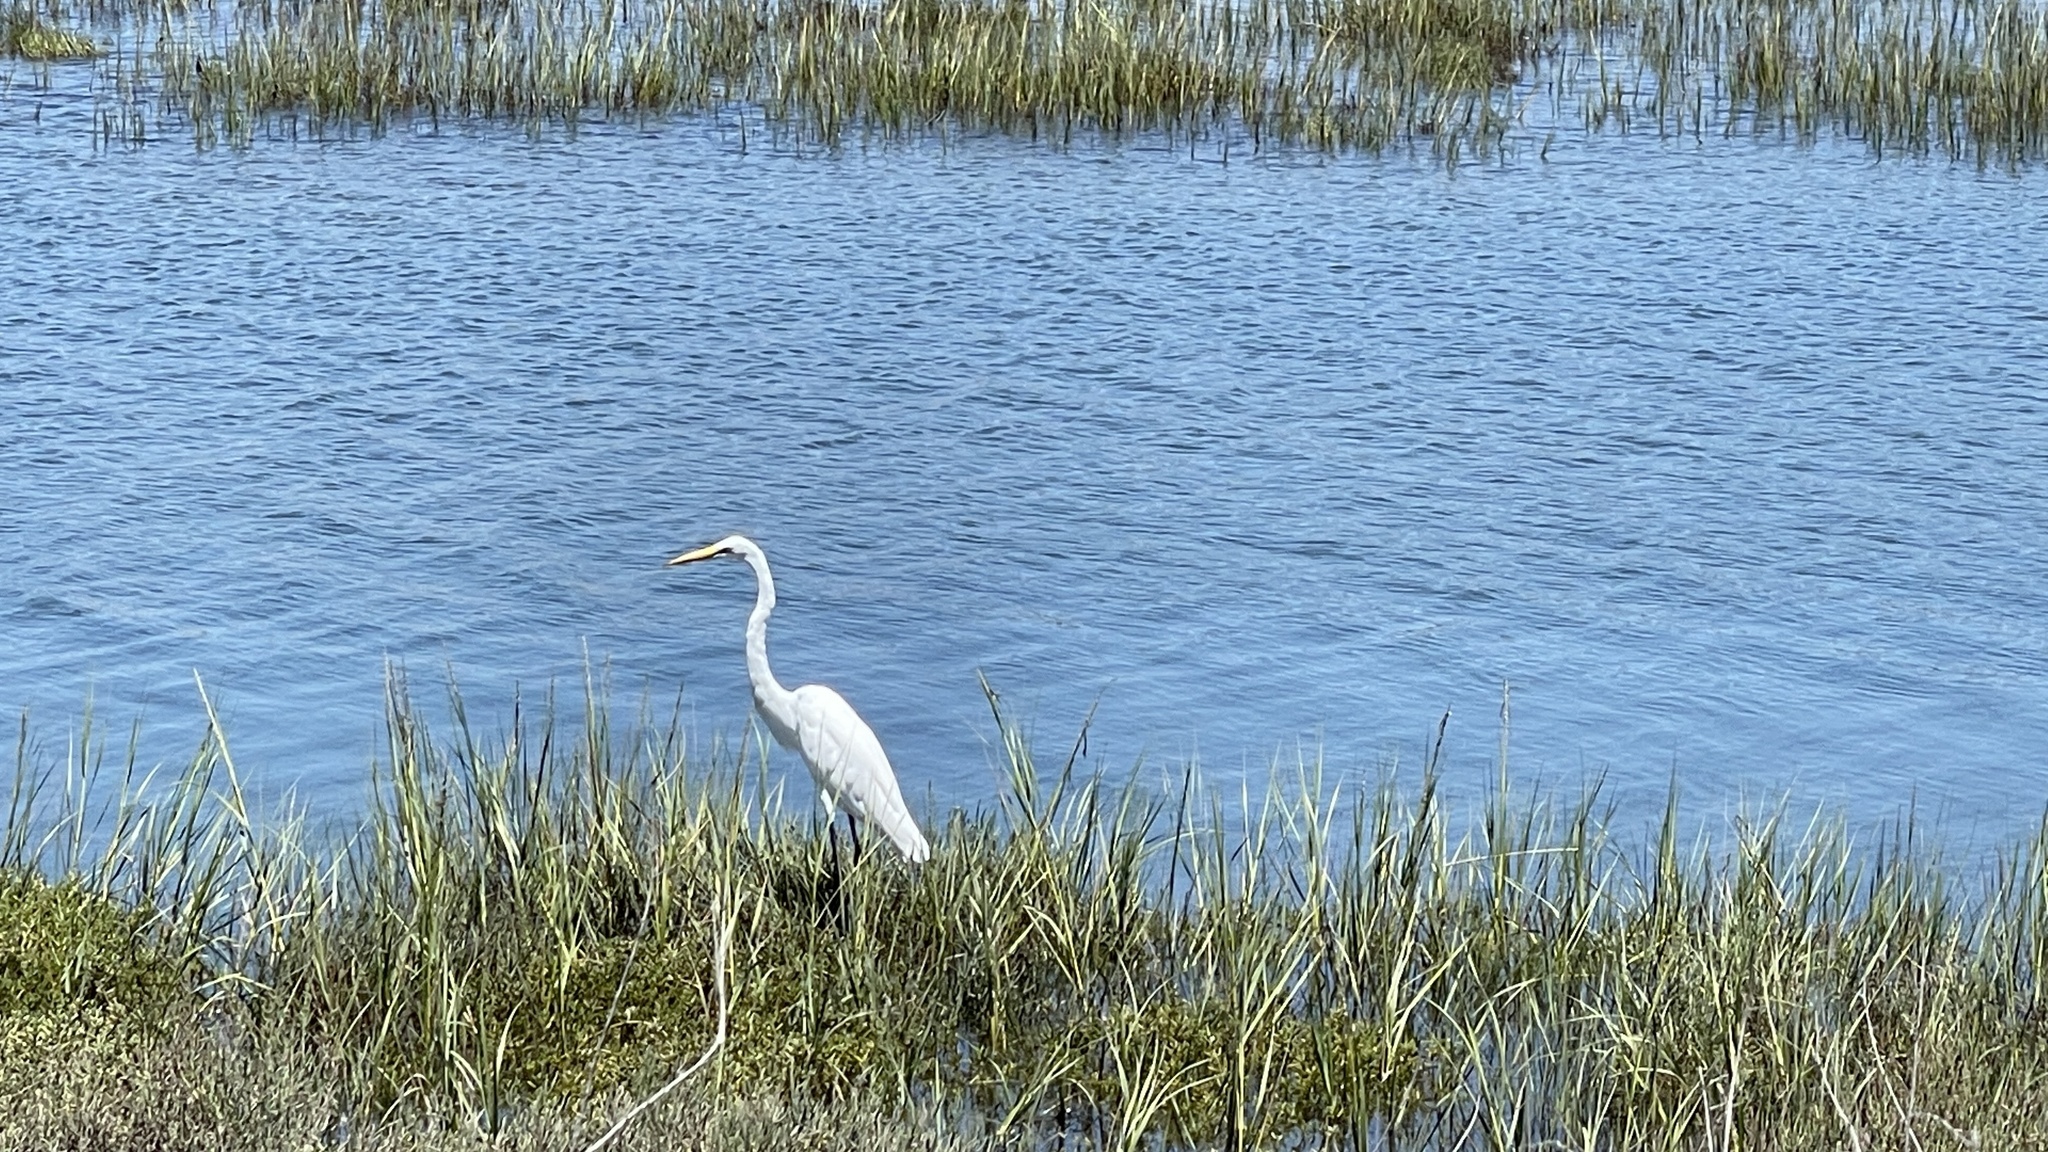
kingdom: Animalia
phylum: Chordata
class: Aves
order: Pelecaniformes
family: Ardeidae
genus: Ardea
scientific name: Ardea alba
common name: Great egret
